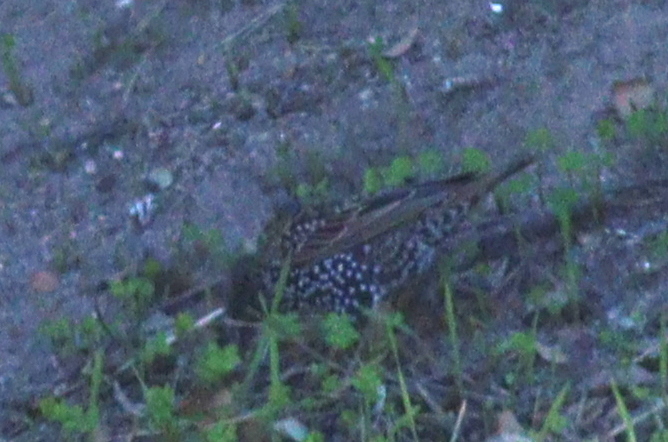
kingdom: Animalia
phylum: Chordata
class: Aves
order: Passeriformes
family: Sturnidae
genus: Sturnus
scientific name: Sturnus vulgaris
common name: Common starling
